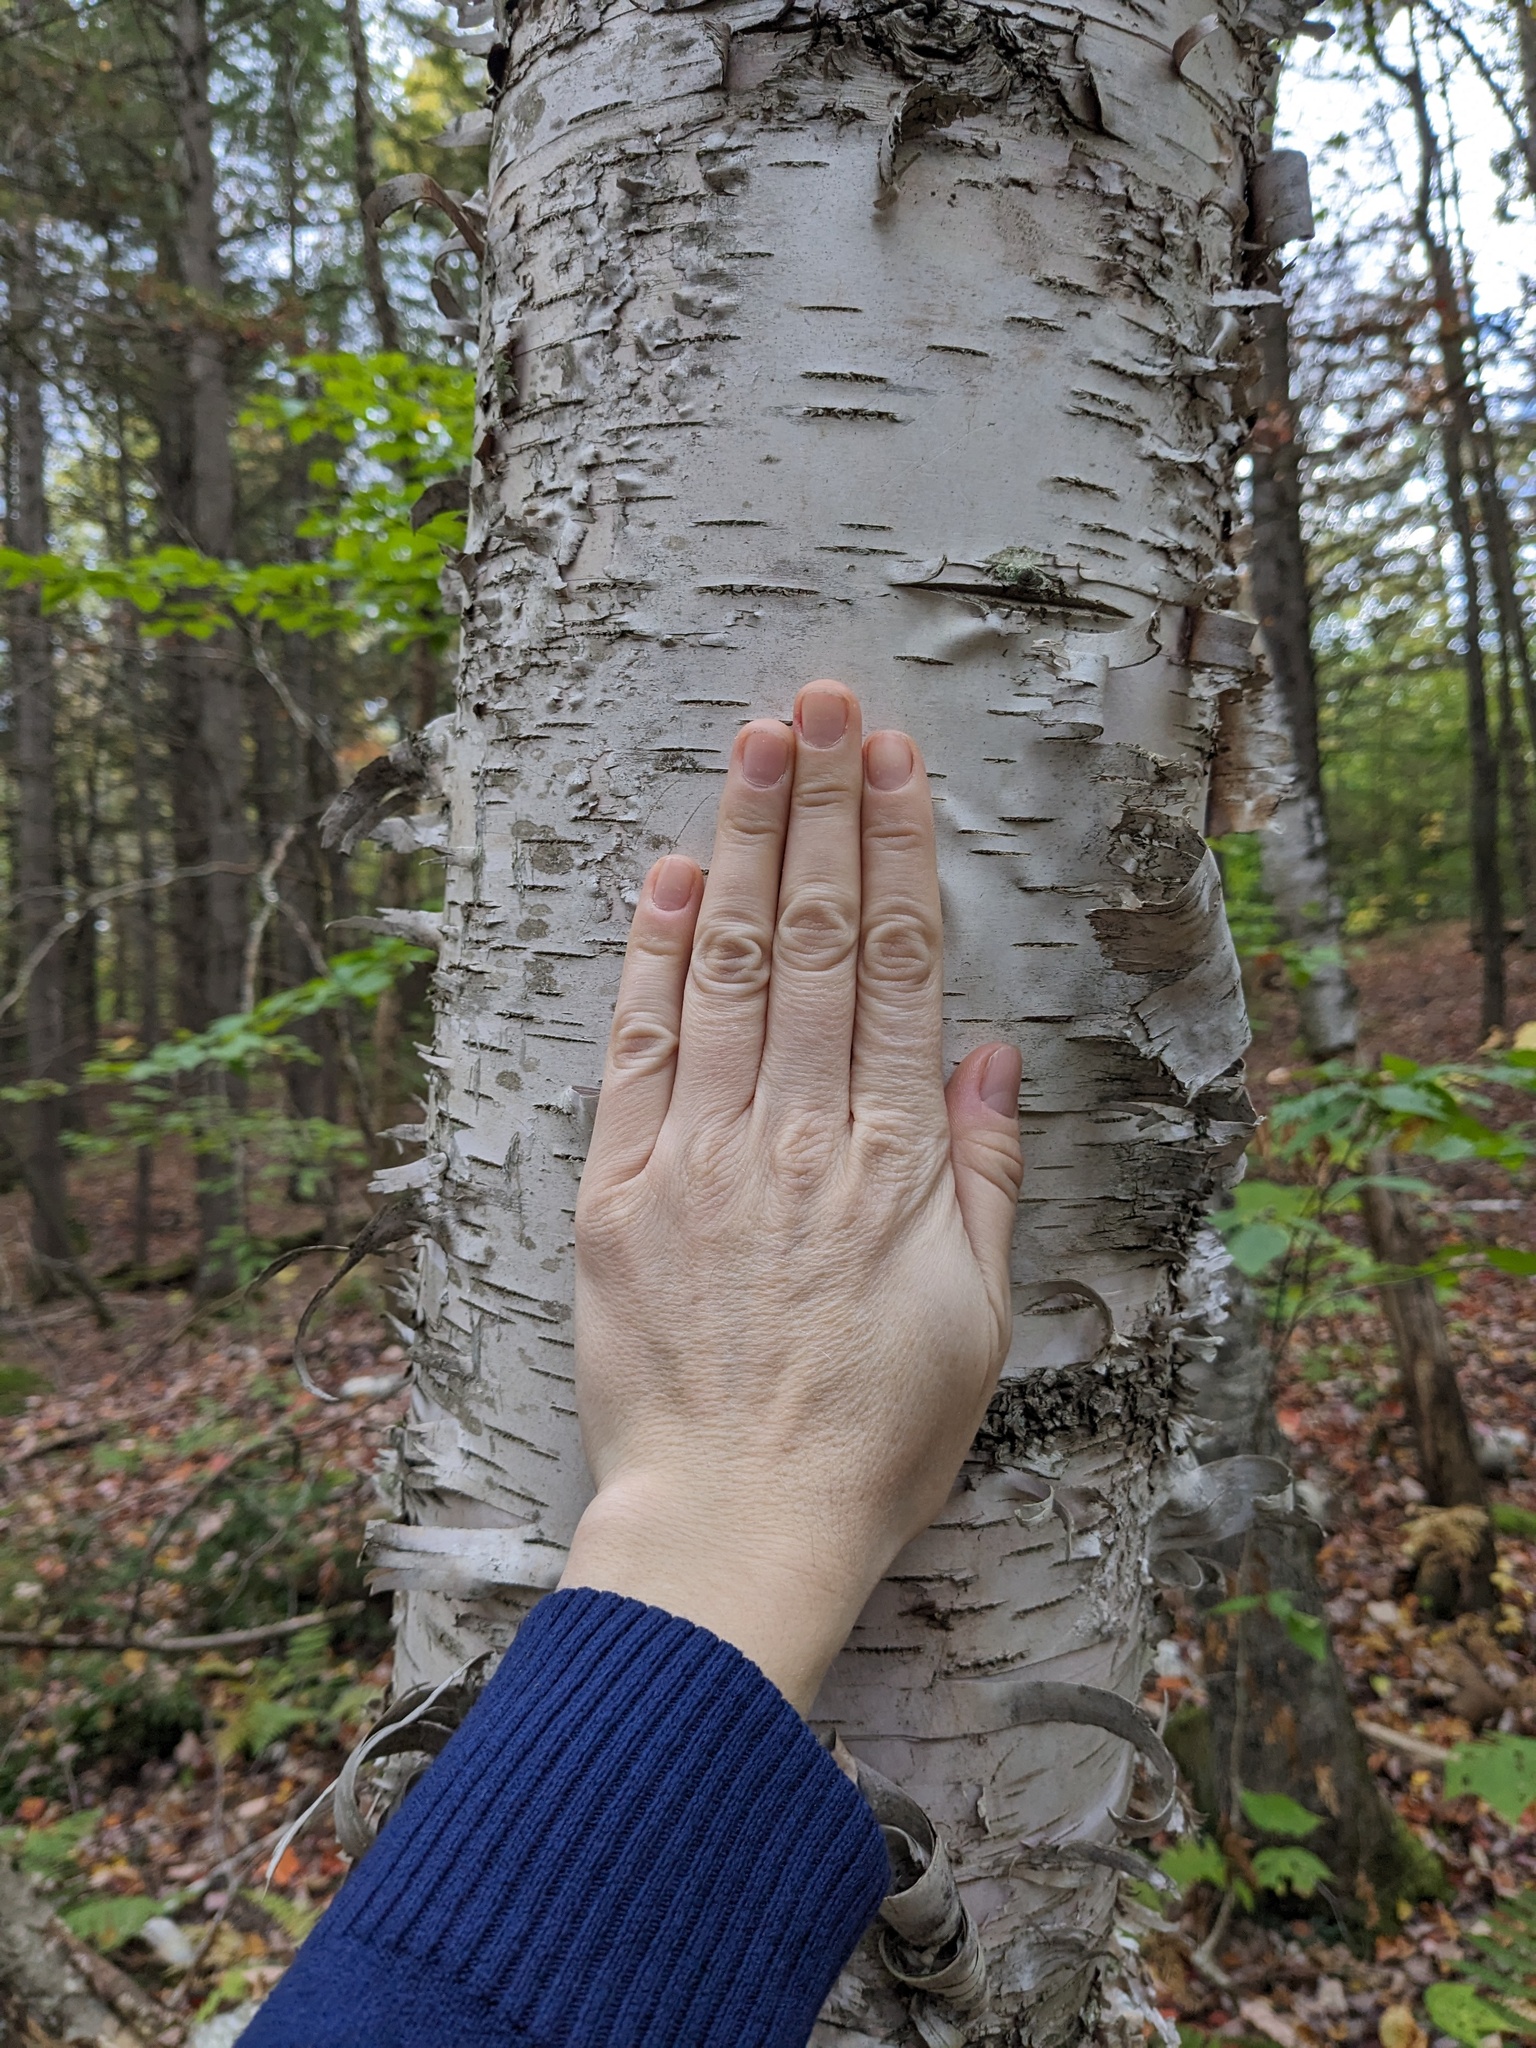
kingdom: Plantae
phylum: Tracheophyta
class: Magnoliopsida
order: Fagales
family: Betulaceae
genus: Betula
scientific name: Betula papyrifera
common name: Paper birch
